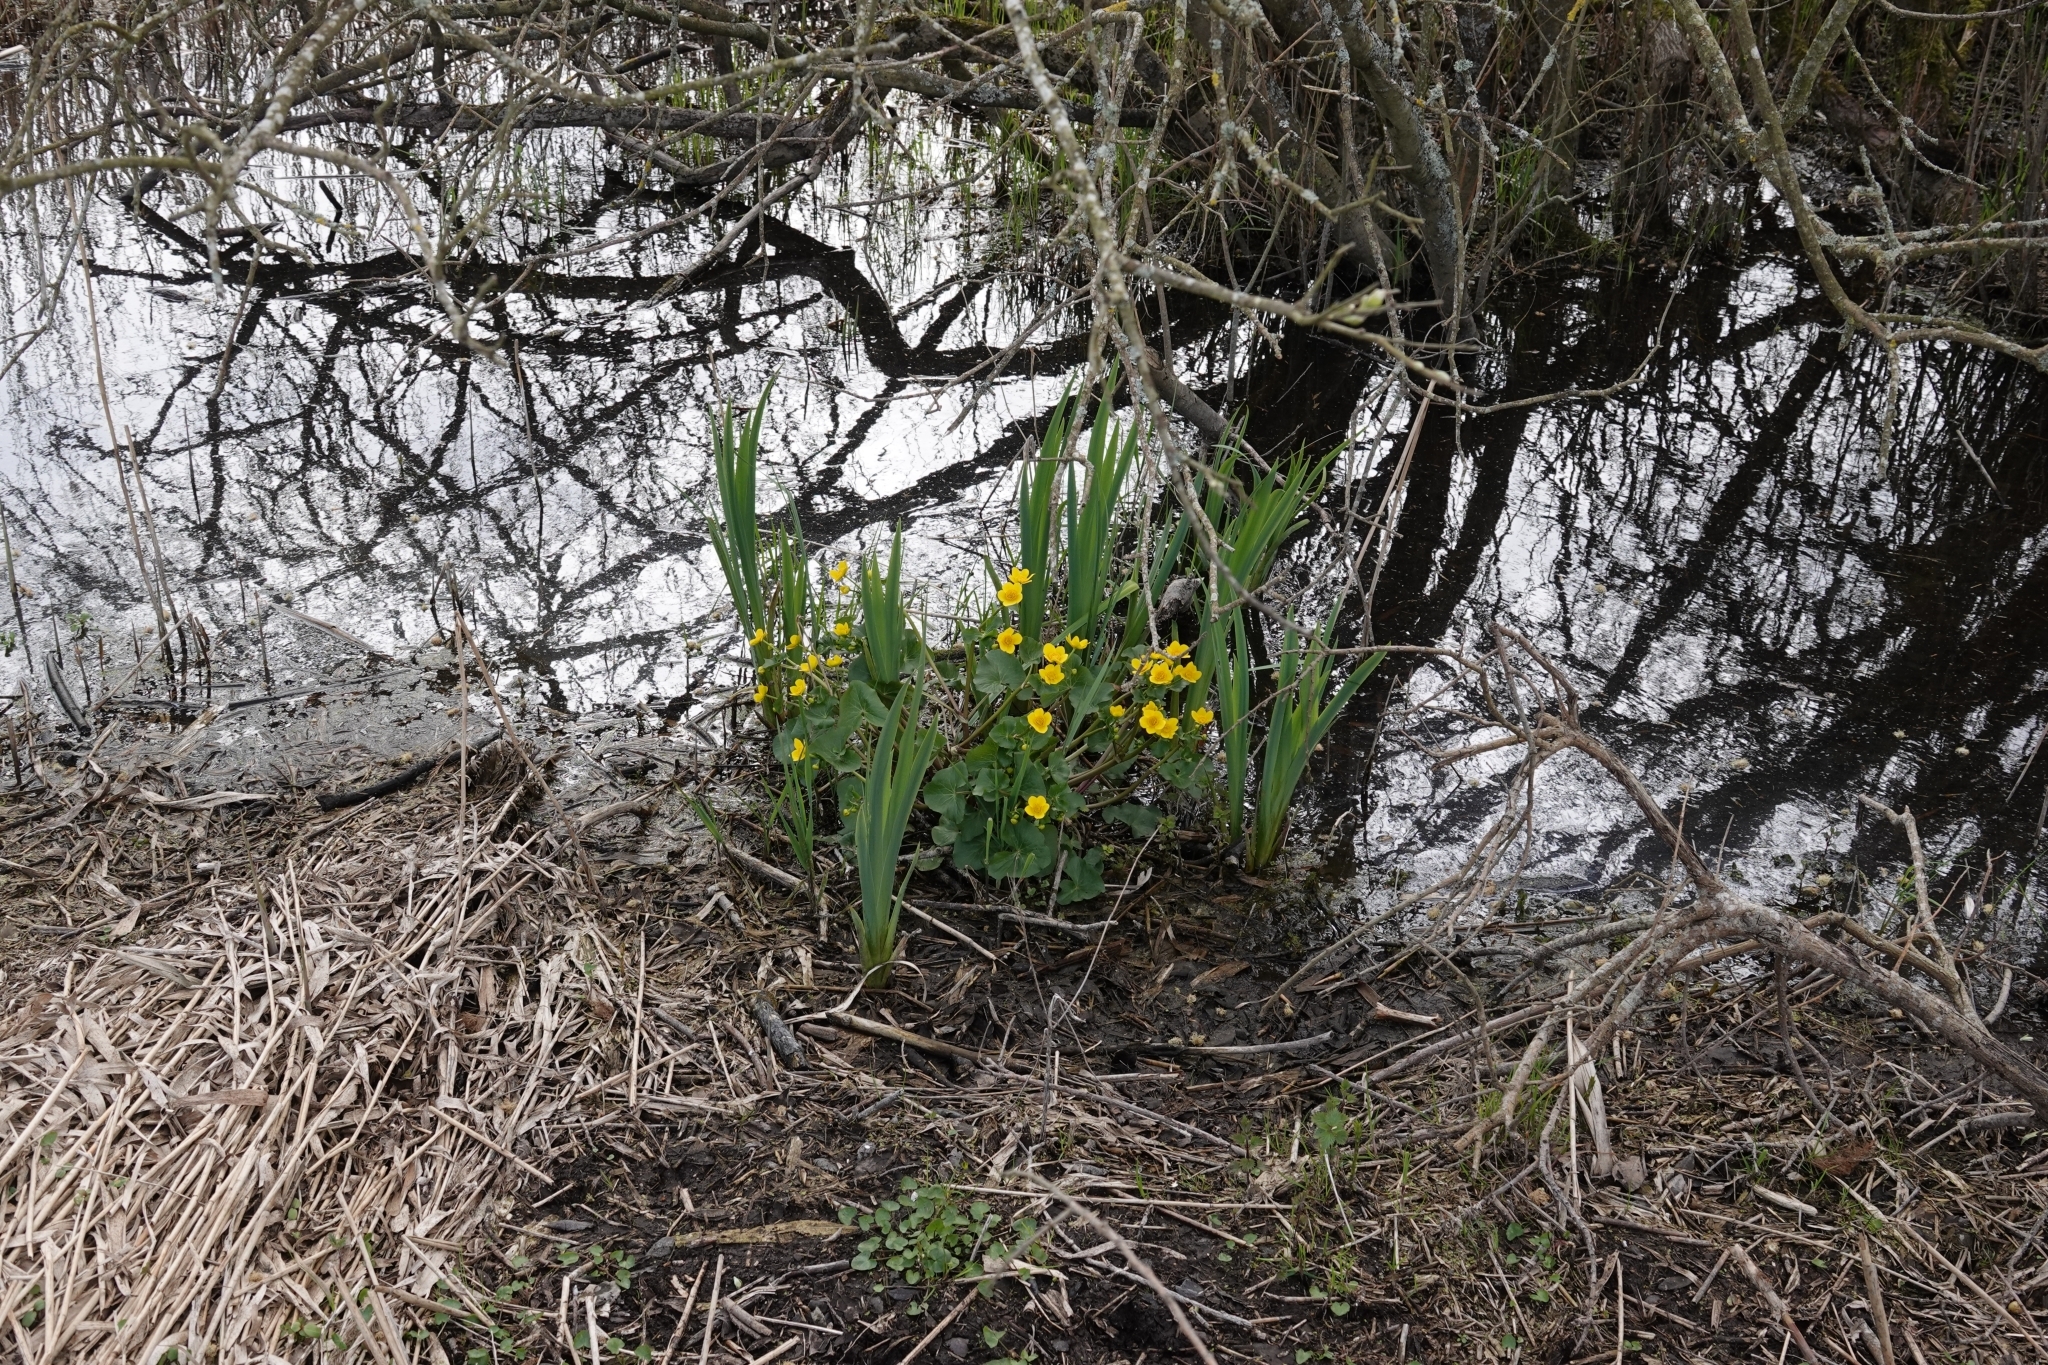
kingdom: Plantae
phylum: Tracheophyta
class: Magnoliopsida
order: Ranunculales
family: Ranunculaceae
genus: Caltha
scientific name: Caltha palustris
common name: Marsh marigold
